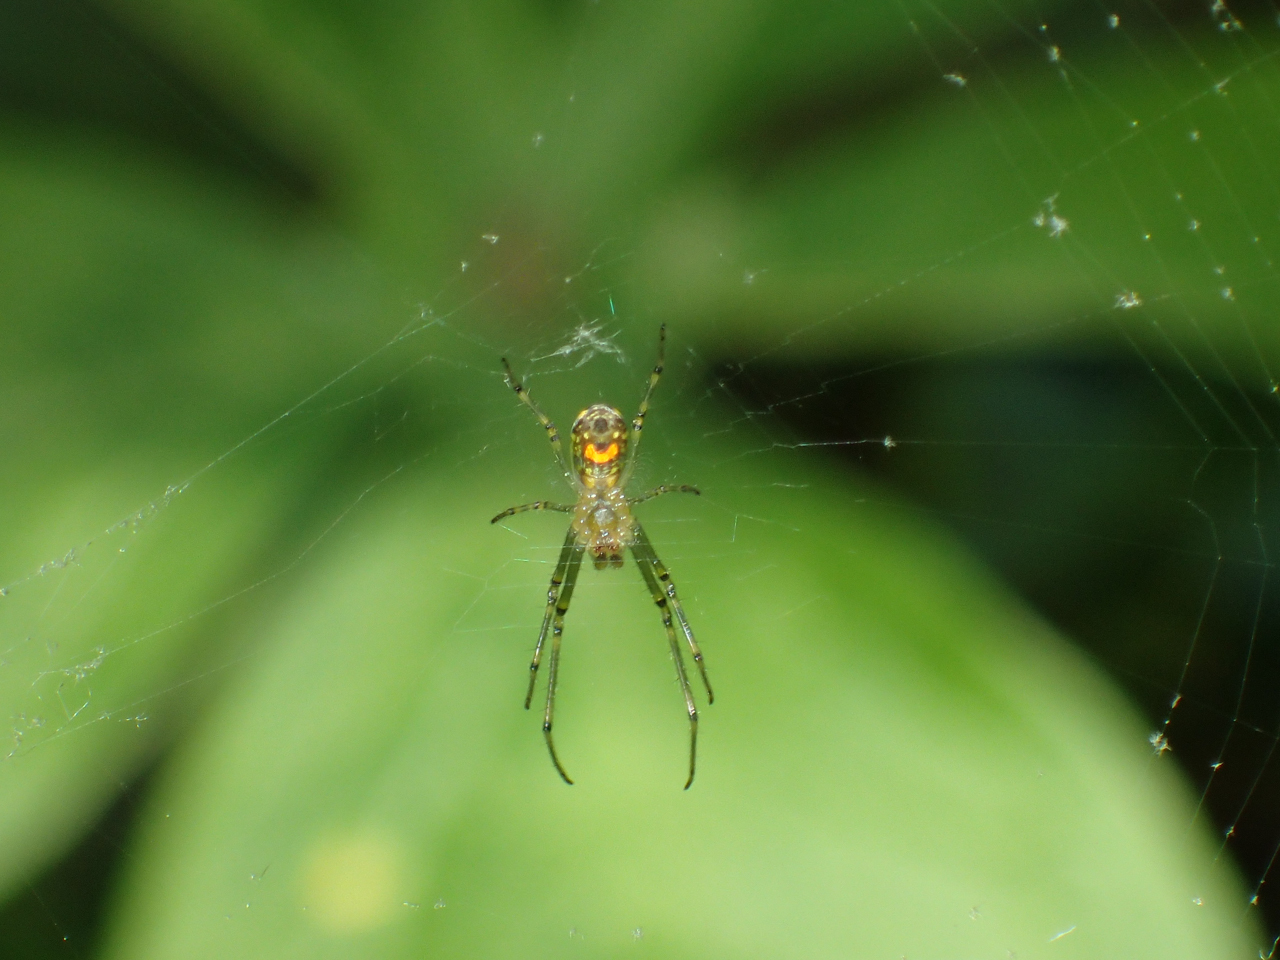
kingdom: Animalia
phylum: Arthropoda
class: Arachnida
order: Araneae
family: Tetragnathidae
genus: Leucauge
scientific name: Leucauge venusta
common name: Longjawed orb weavers
